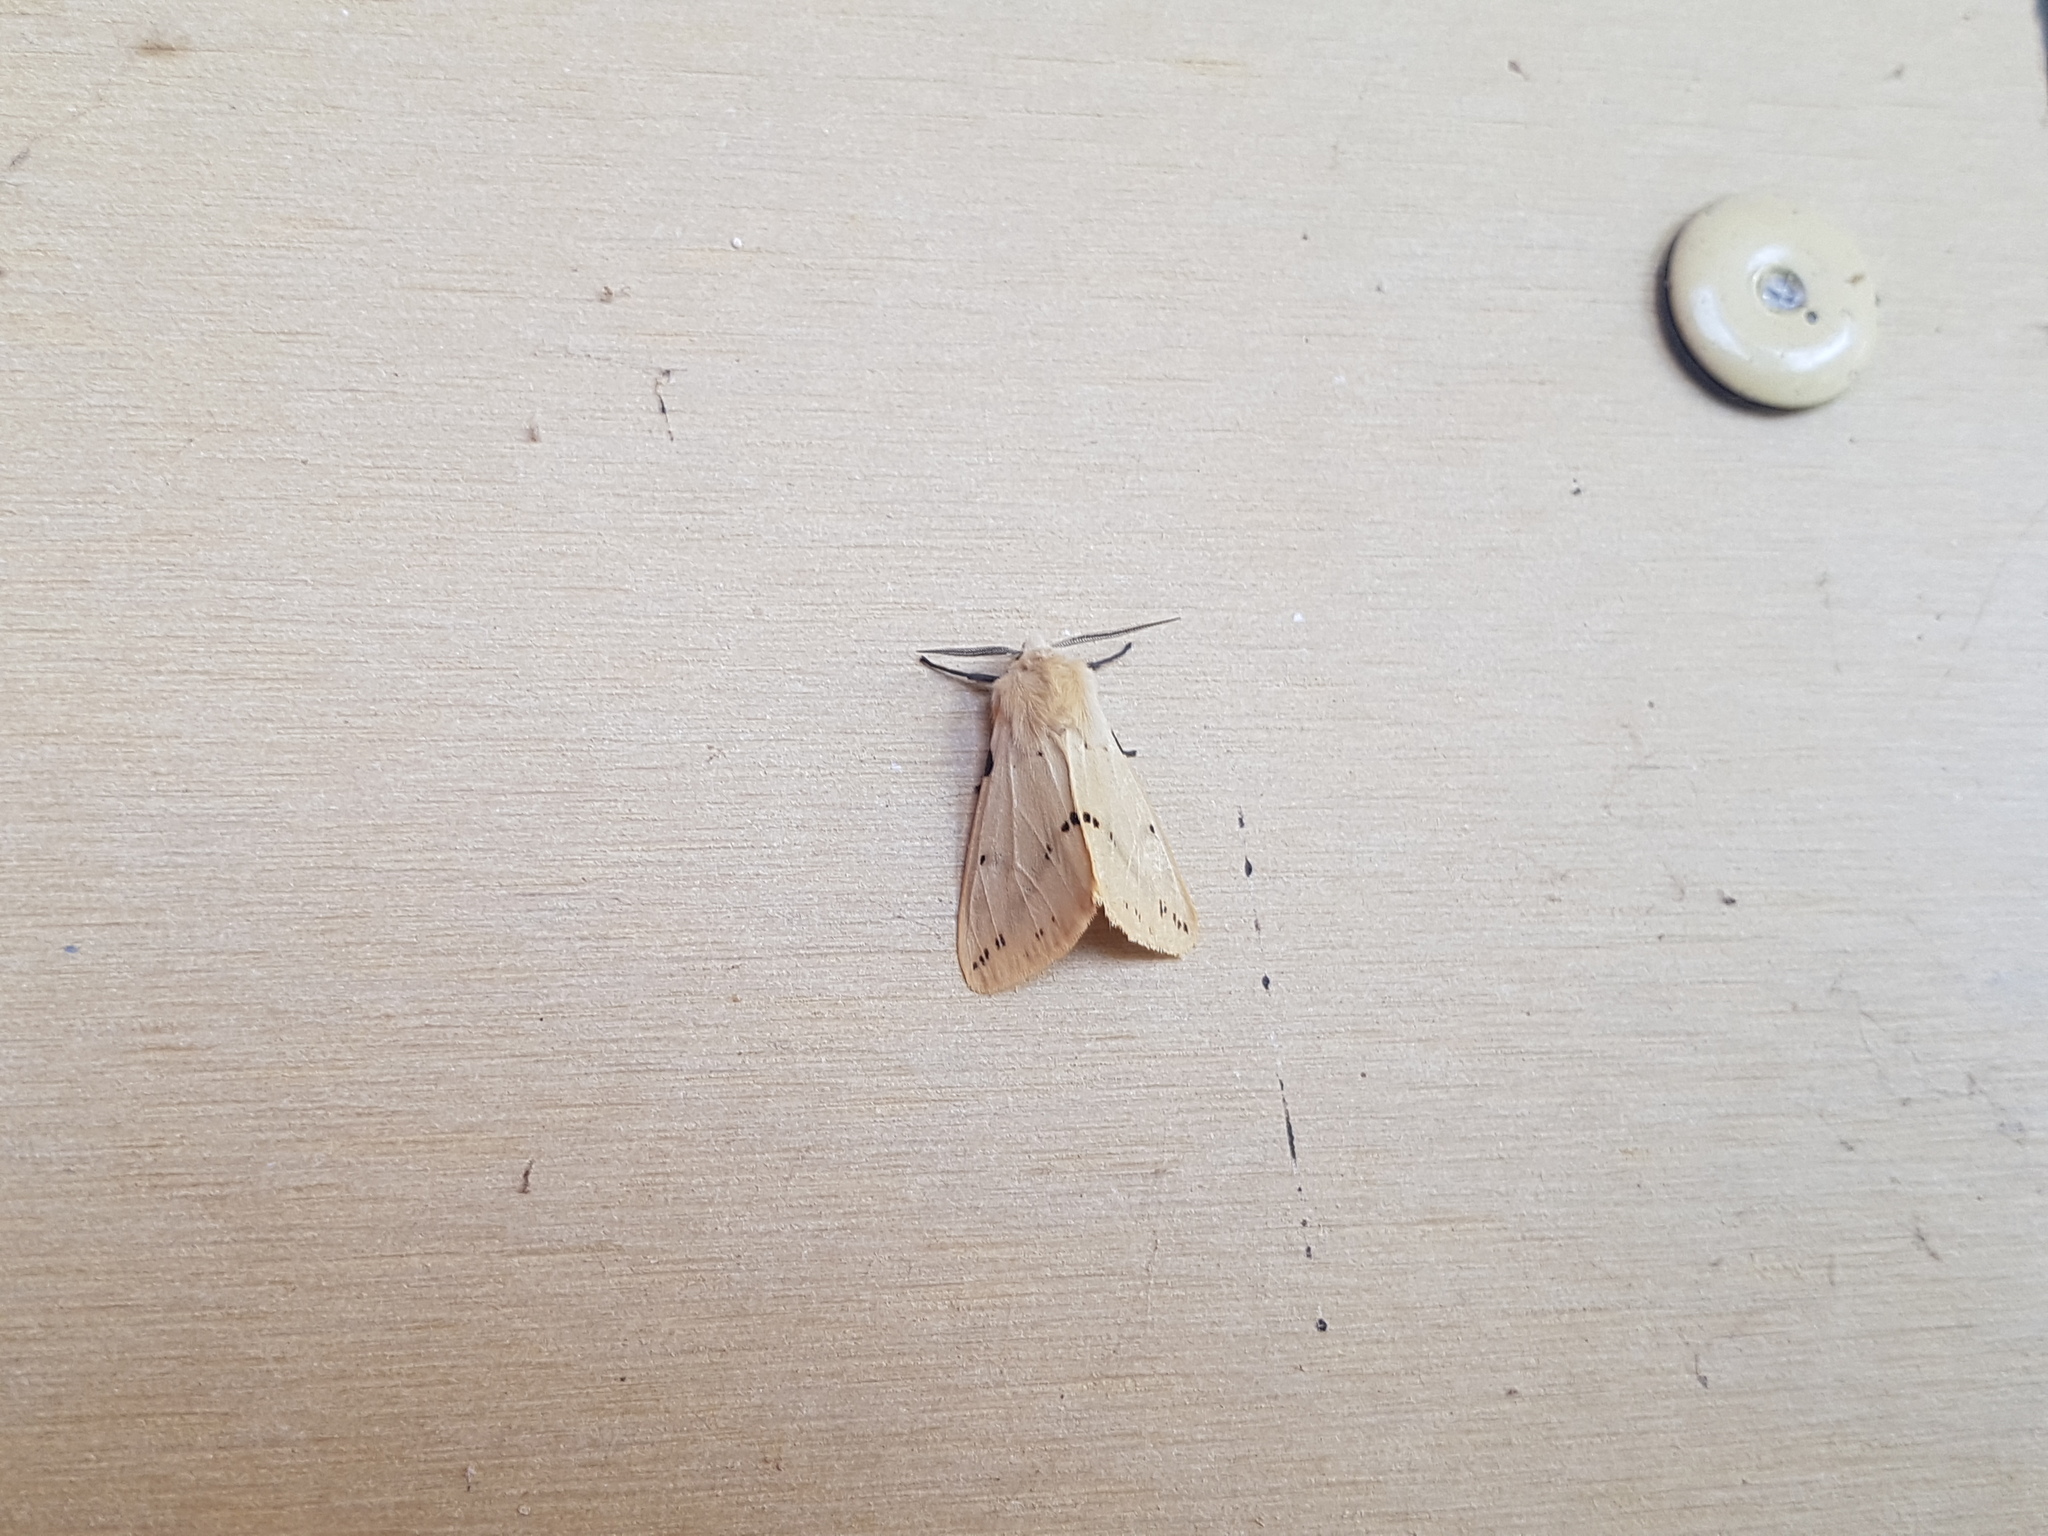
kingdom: Animalia
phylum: Arthropoda
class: Insecta
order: Lepidoptera
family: Erebidae
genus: Spilarctia
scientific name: Spilarctia lutea
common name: Buff ermine
